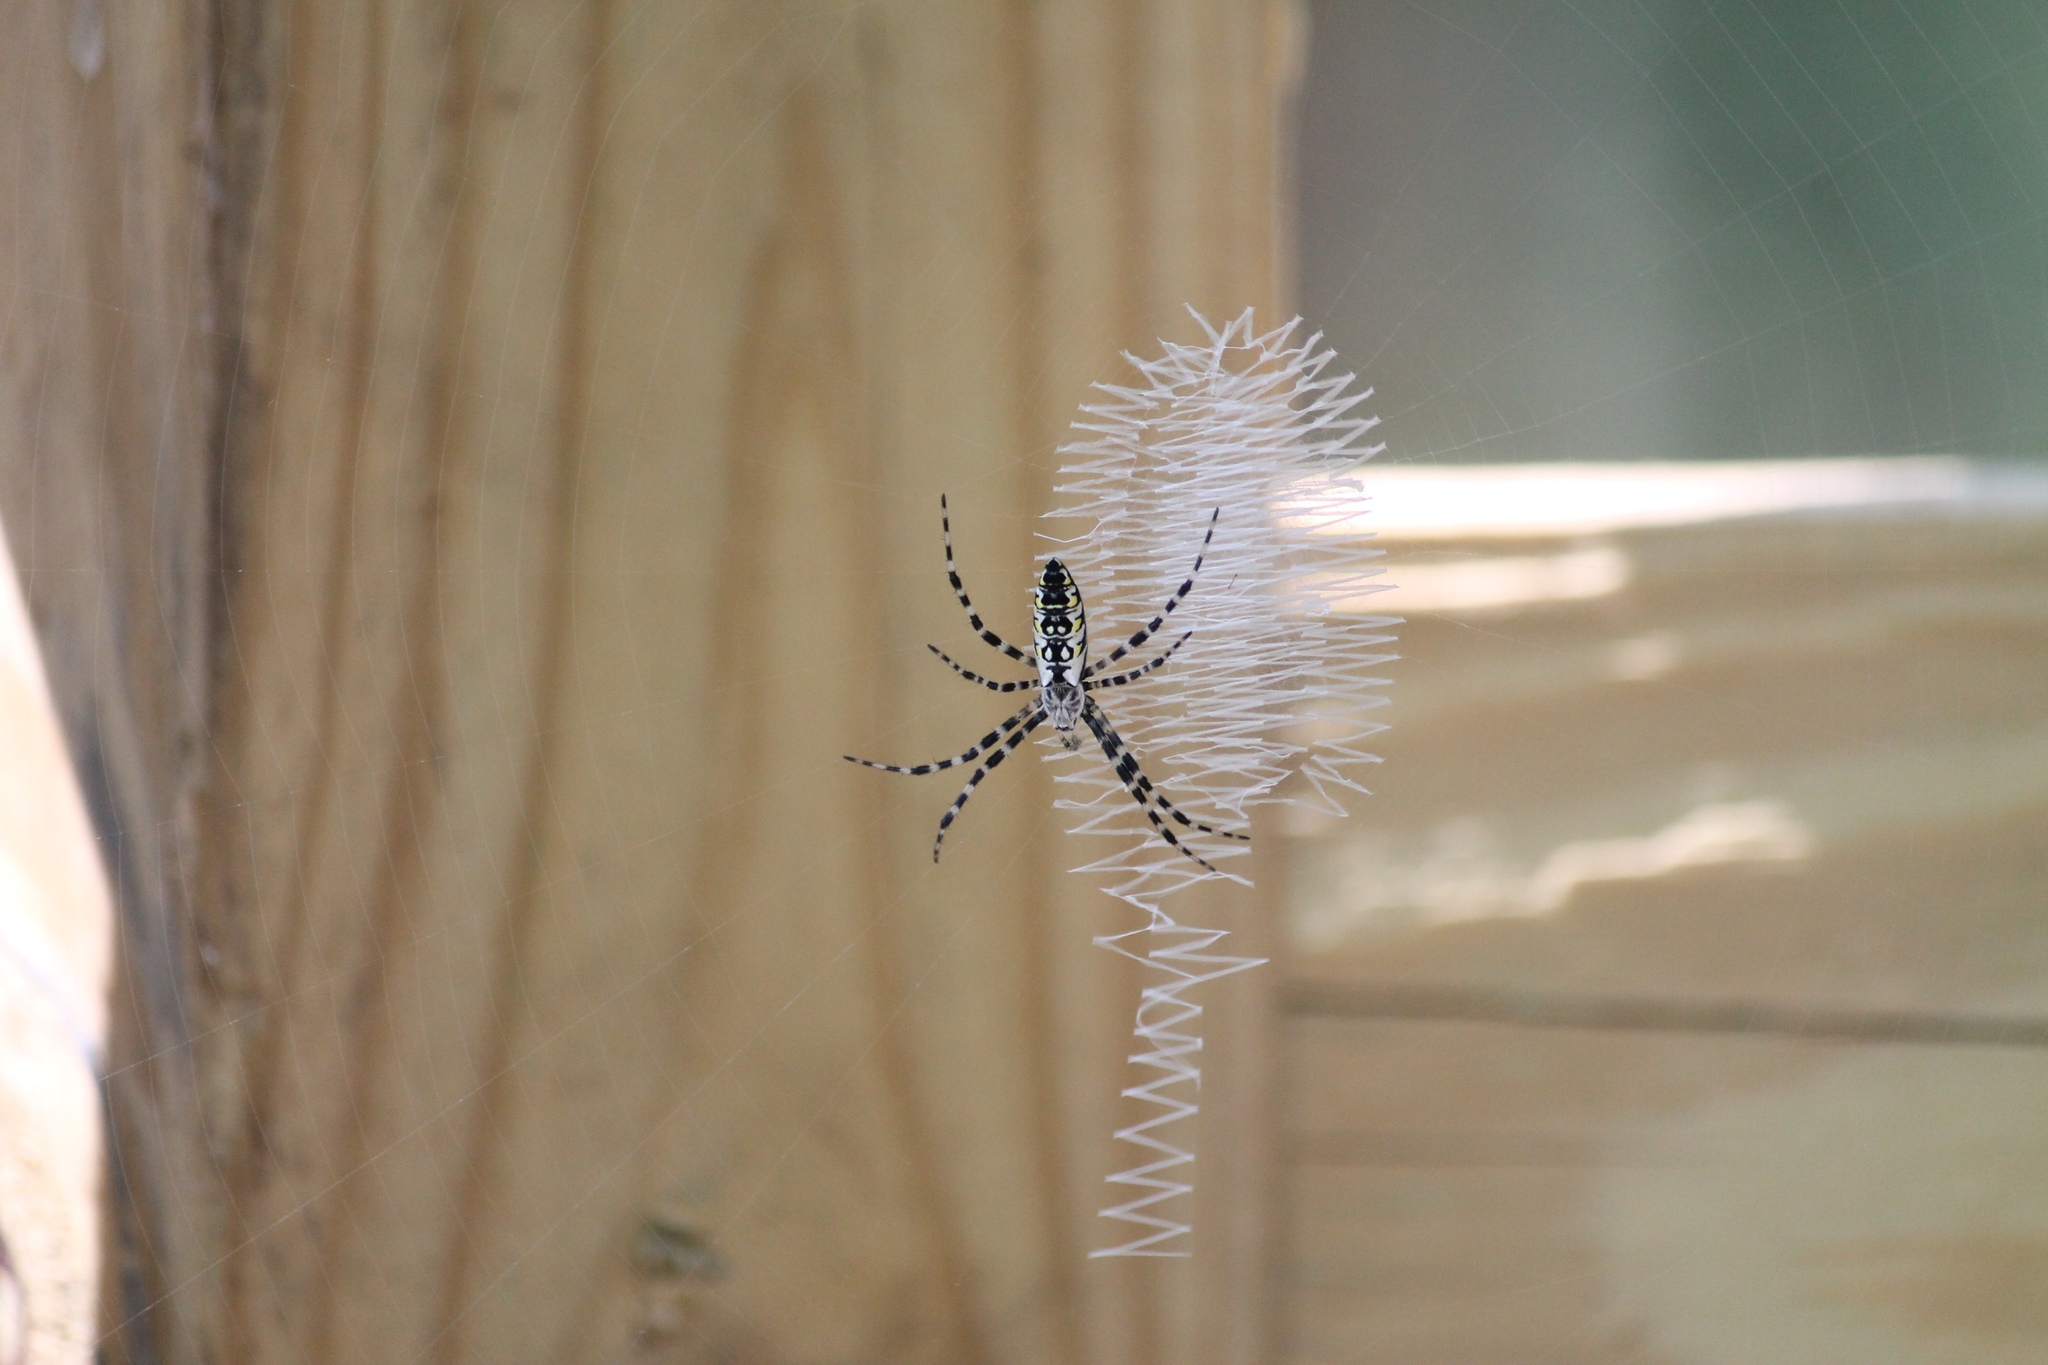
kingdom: Animalia
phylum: Arthropoda
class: Arachnida
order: Araneae
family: Araneidae
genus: Argiope
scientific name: Argiope aurantia
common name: Orb weavers
